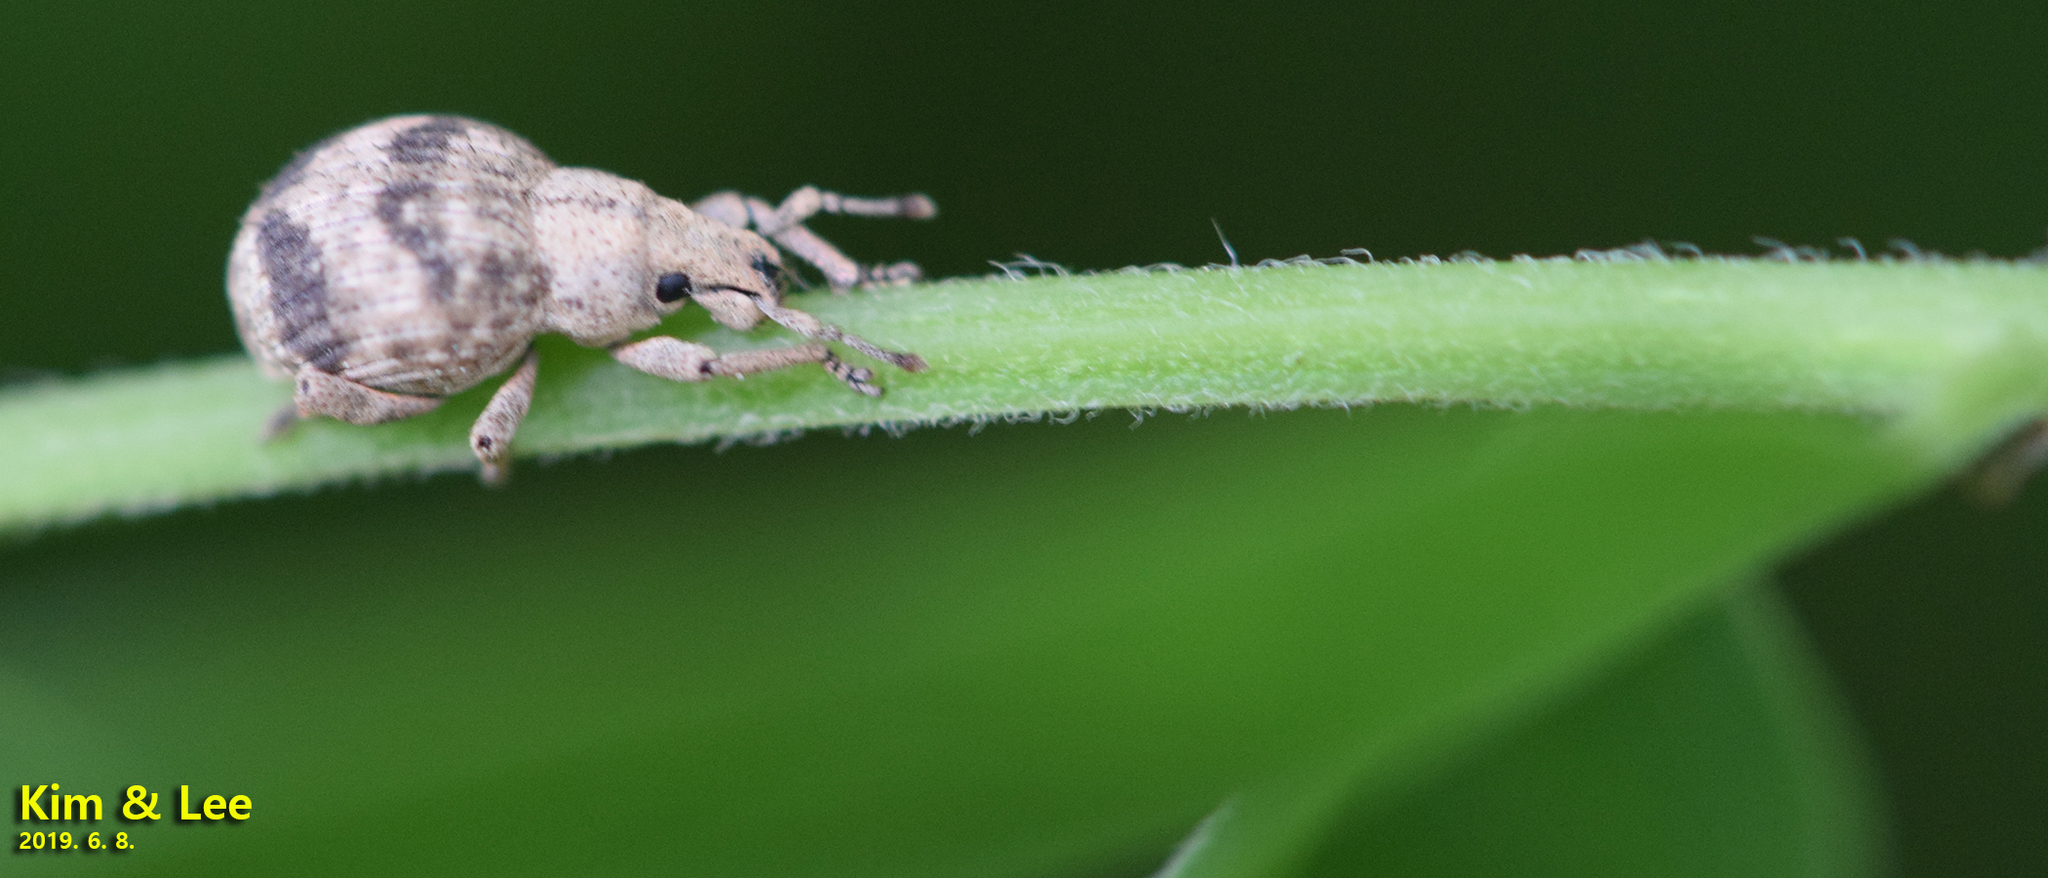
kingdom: Animalia
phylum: Arthropoda
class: Insecta
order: Coleoptera
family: Curculionidae
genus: Pseudocneorhinus
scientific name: Pseudocneorhinus bifasciatus
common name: Two-banded japanese weevil
